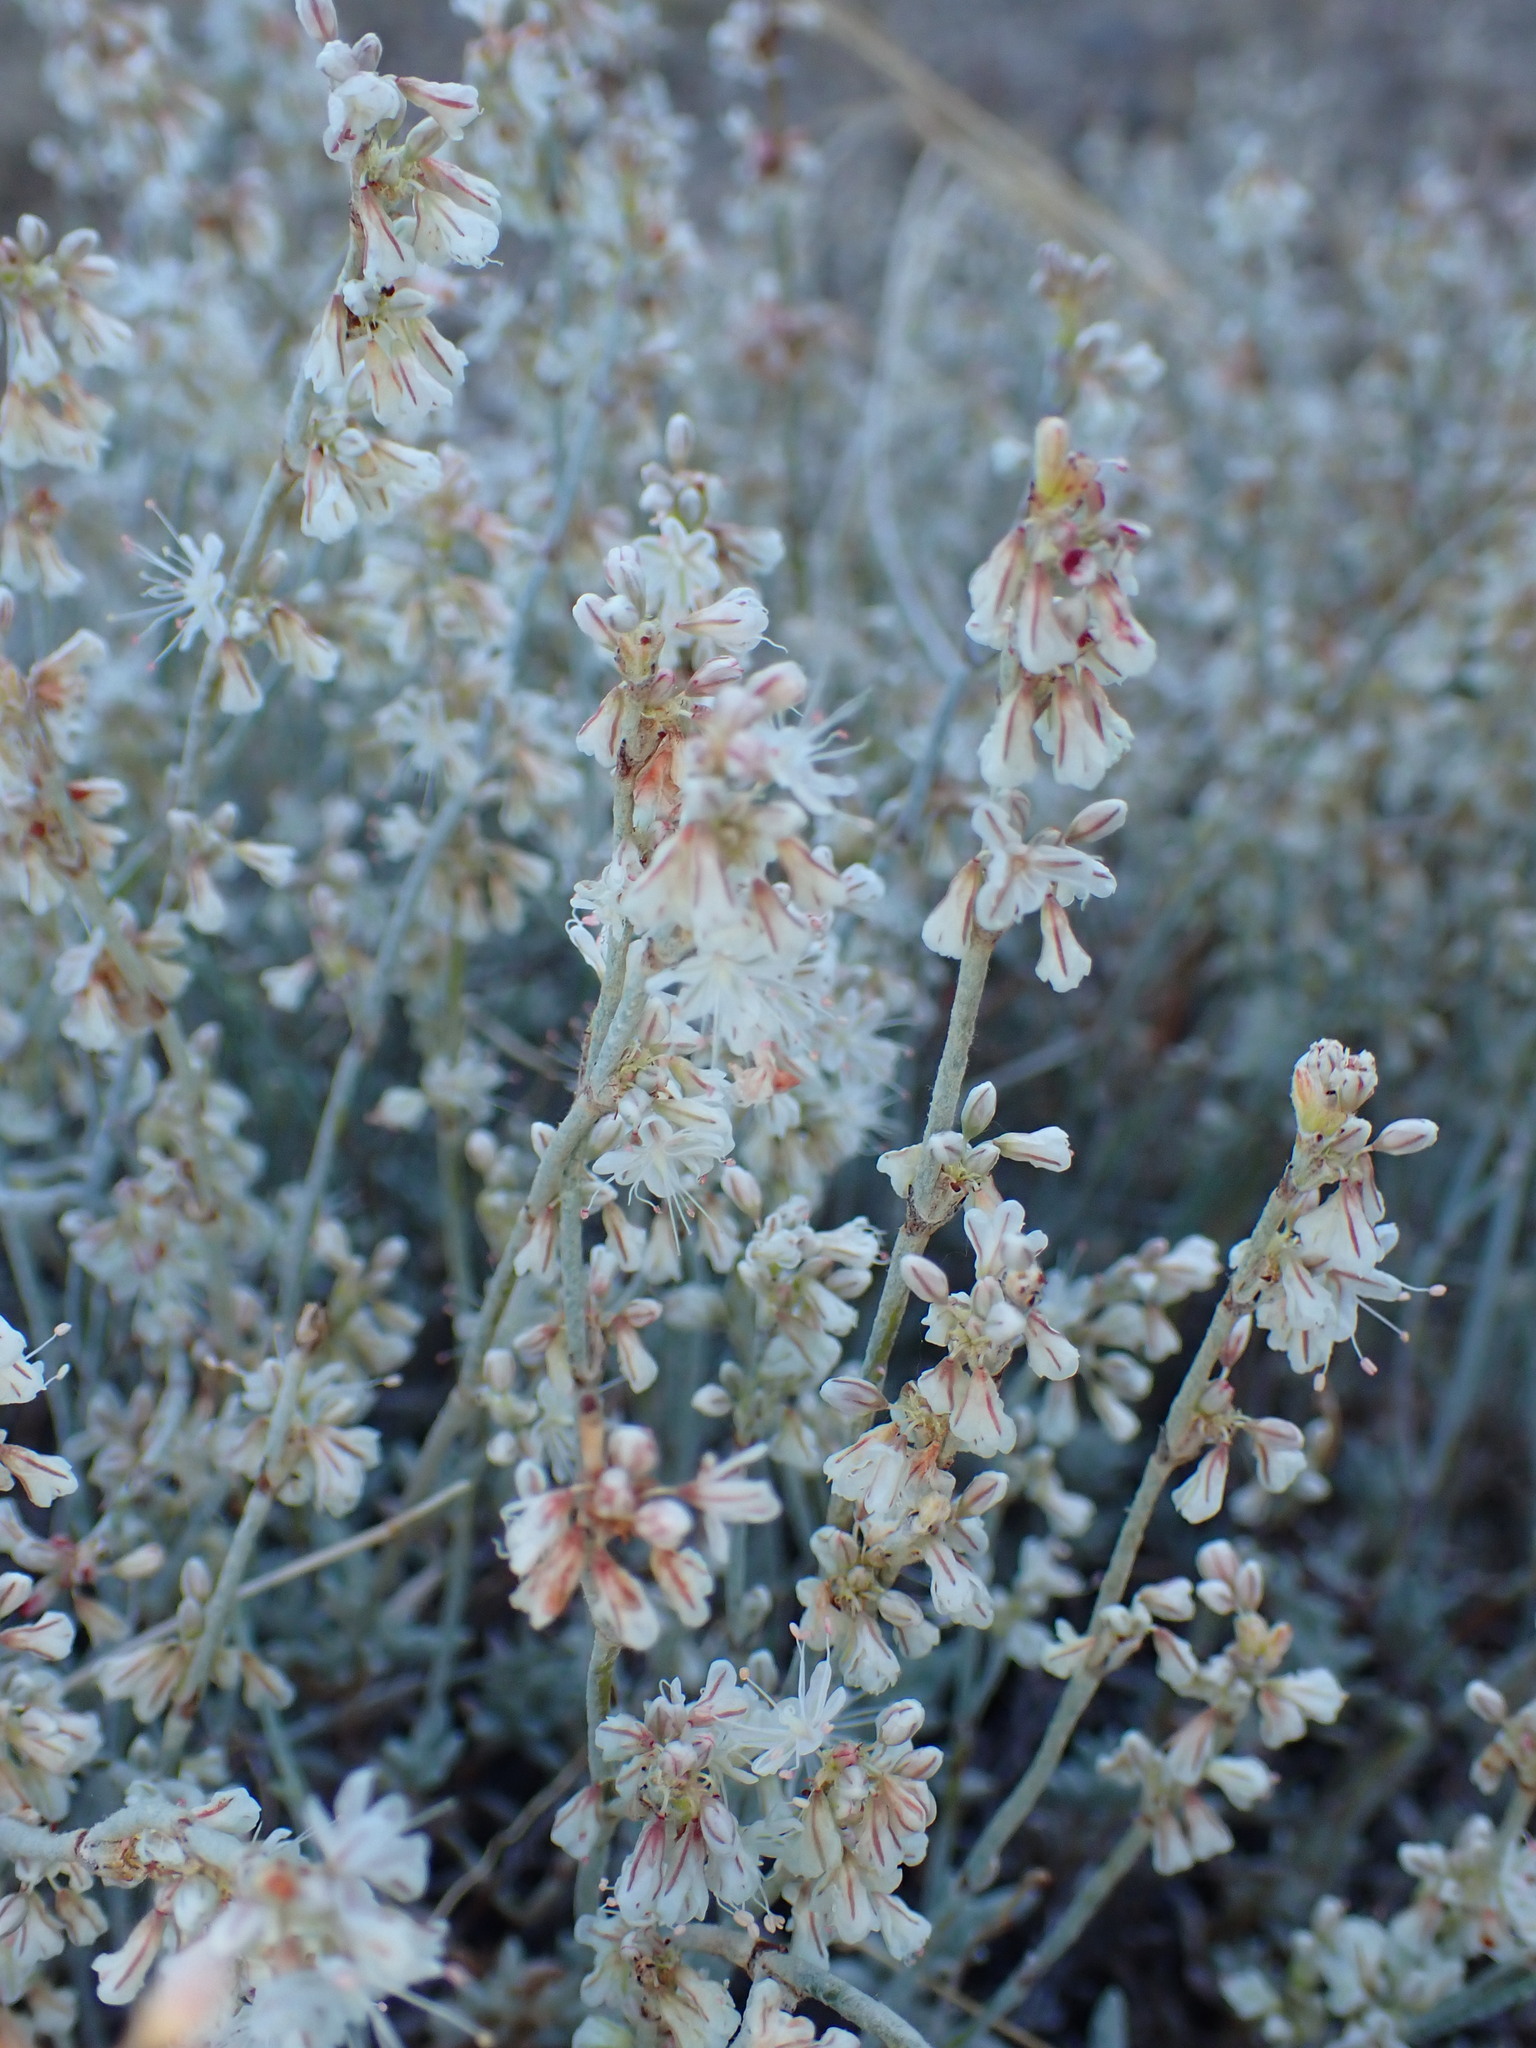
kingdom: Plantae
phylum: Tracheophyta
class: Magnoliopsida
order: Caryophyllales
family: Polygonaceae
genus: Eriogonum
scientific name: Eriogonum wrightii
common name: Bastard-sage
